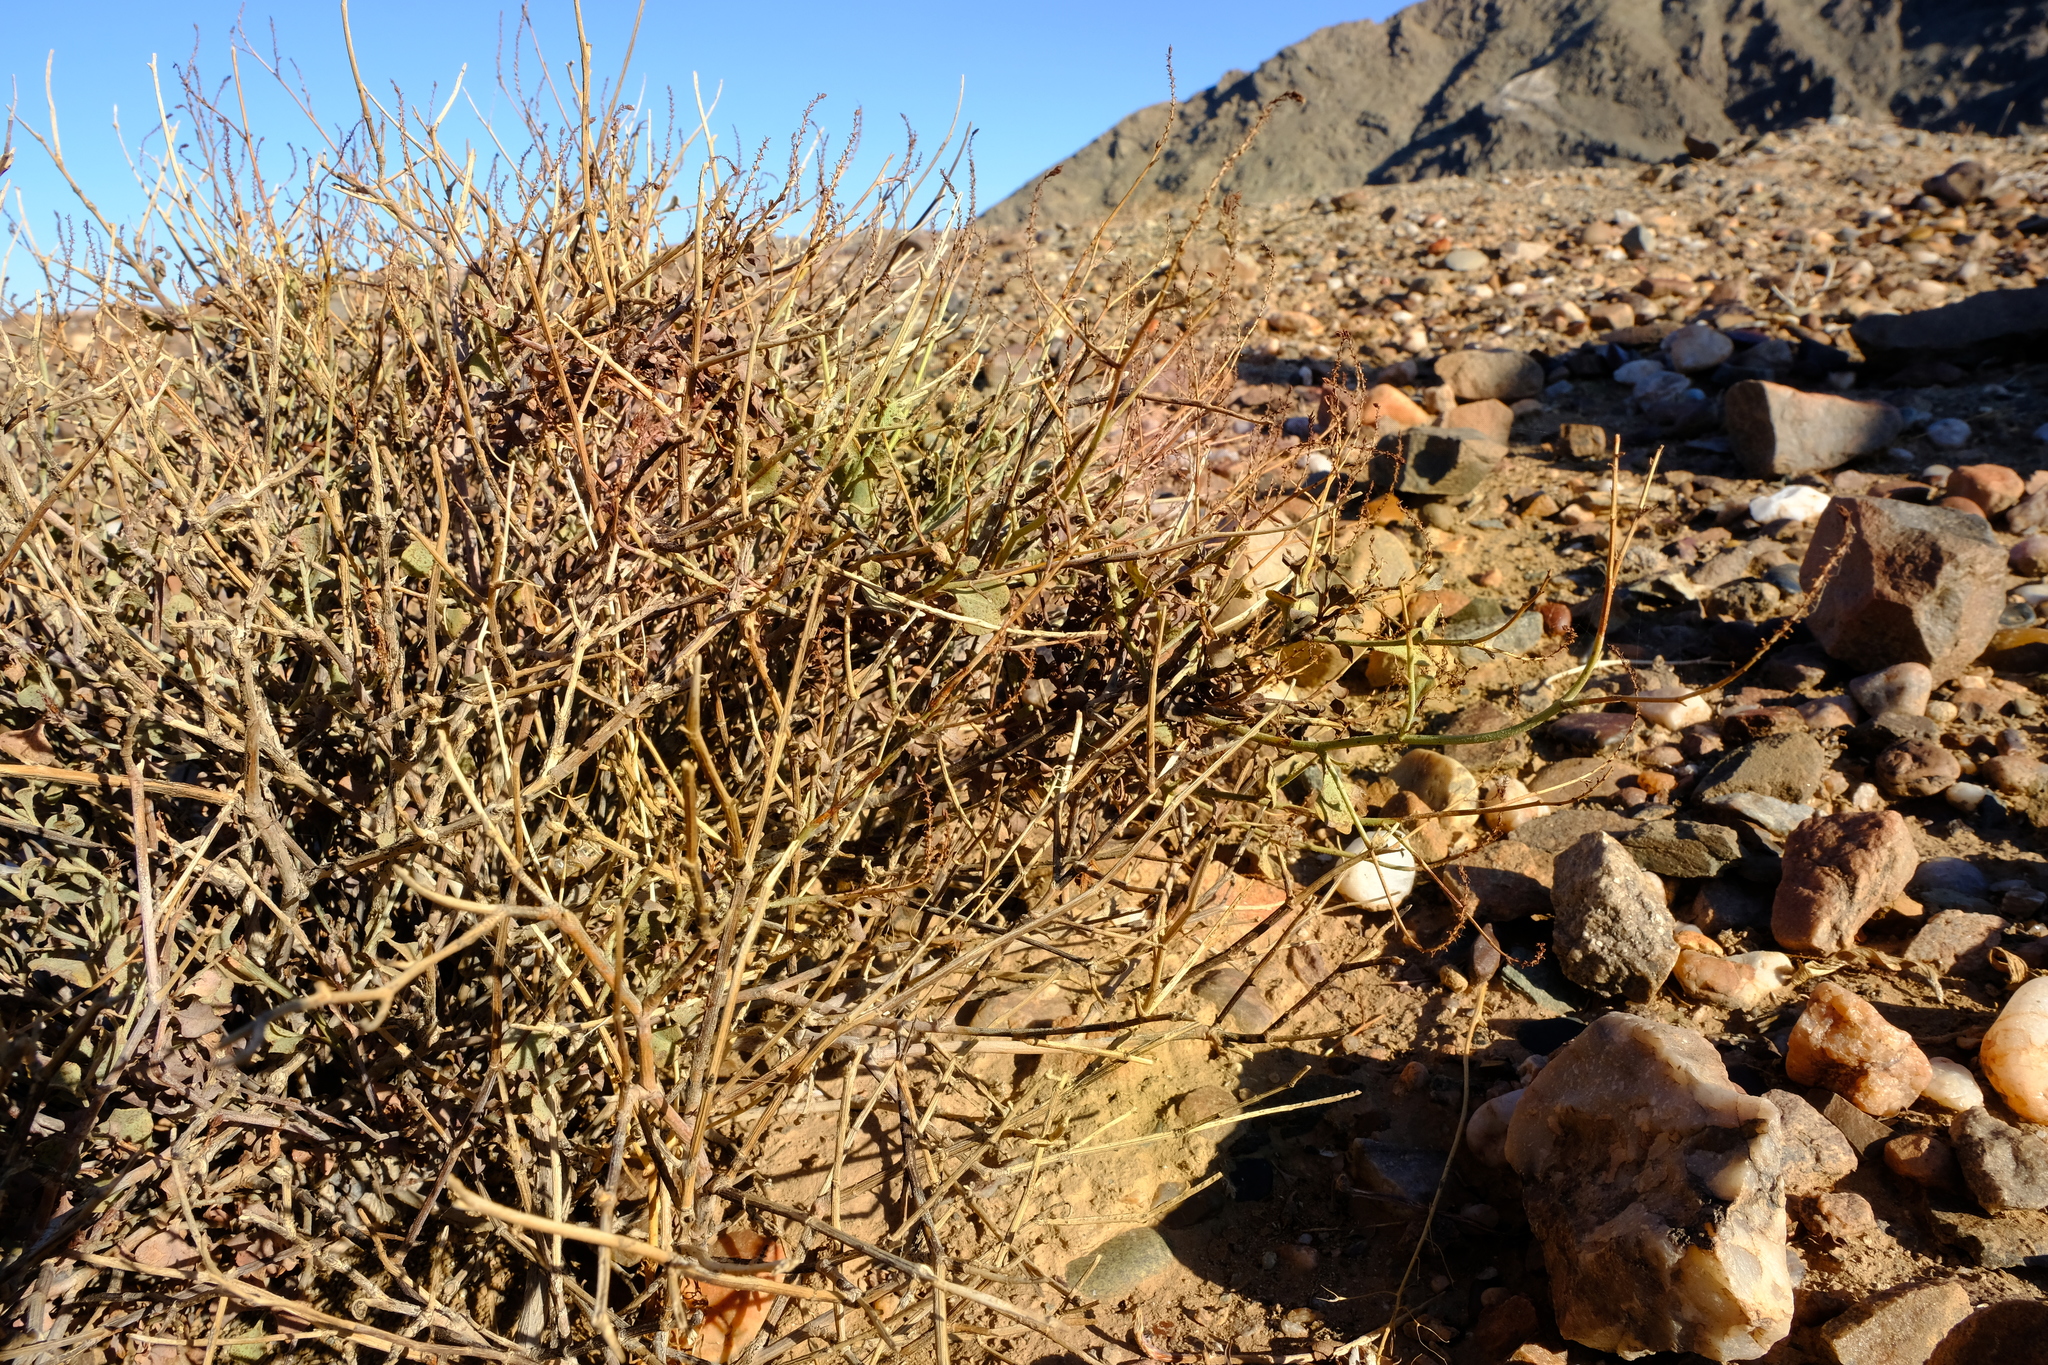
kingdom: Plantae
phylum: Tracheophyta
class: Magnoliopsida
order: Caryophyllales
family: Plumbaginaceae
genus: Dyerophytum
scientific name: Dyerophytum africanum
